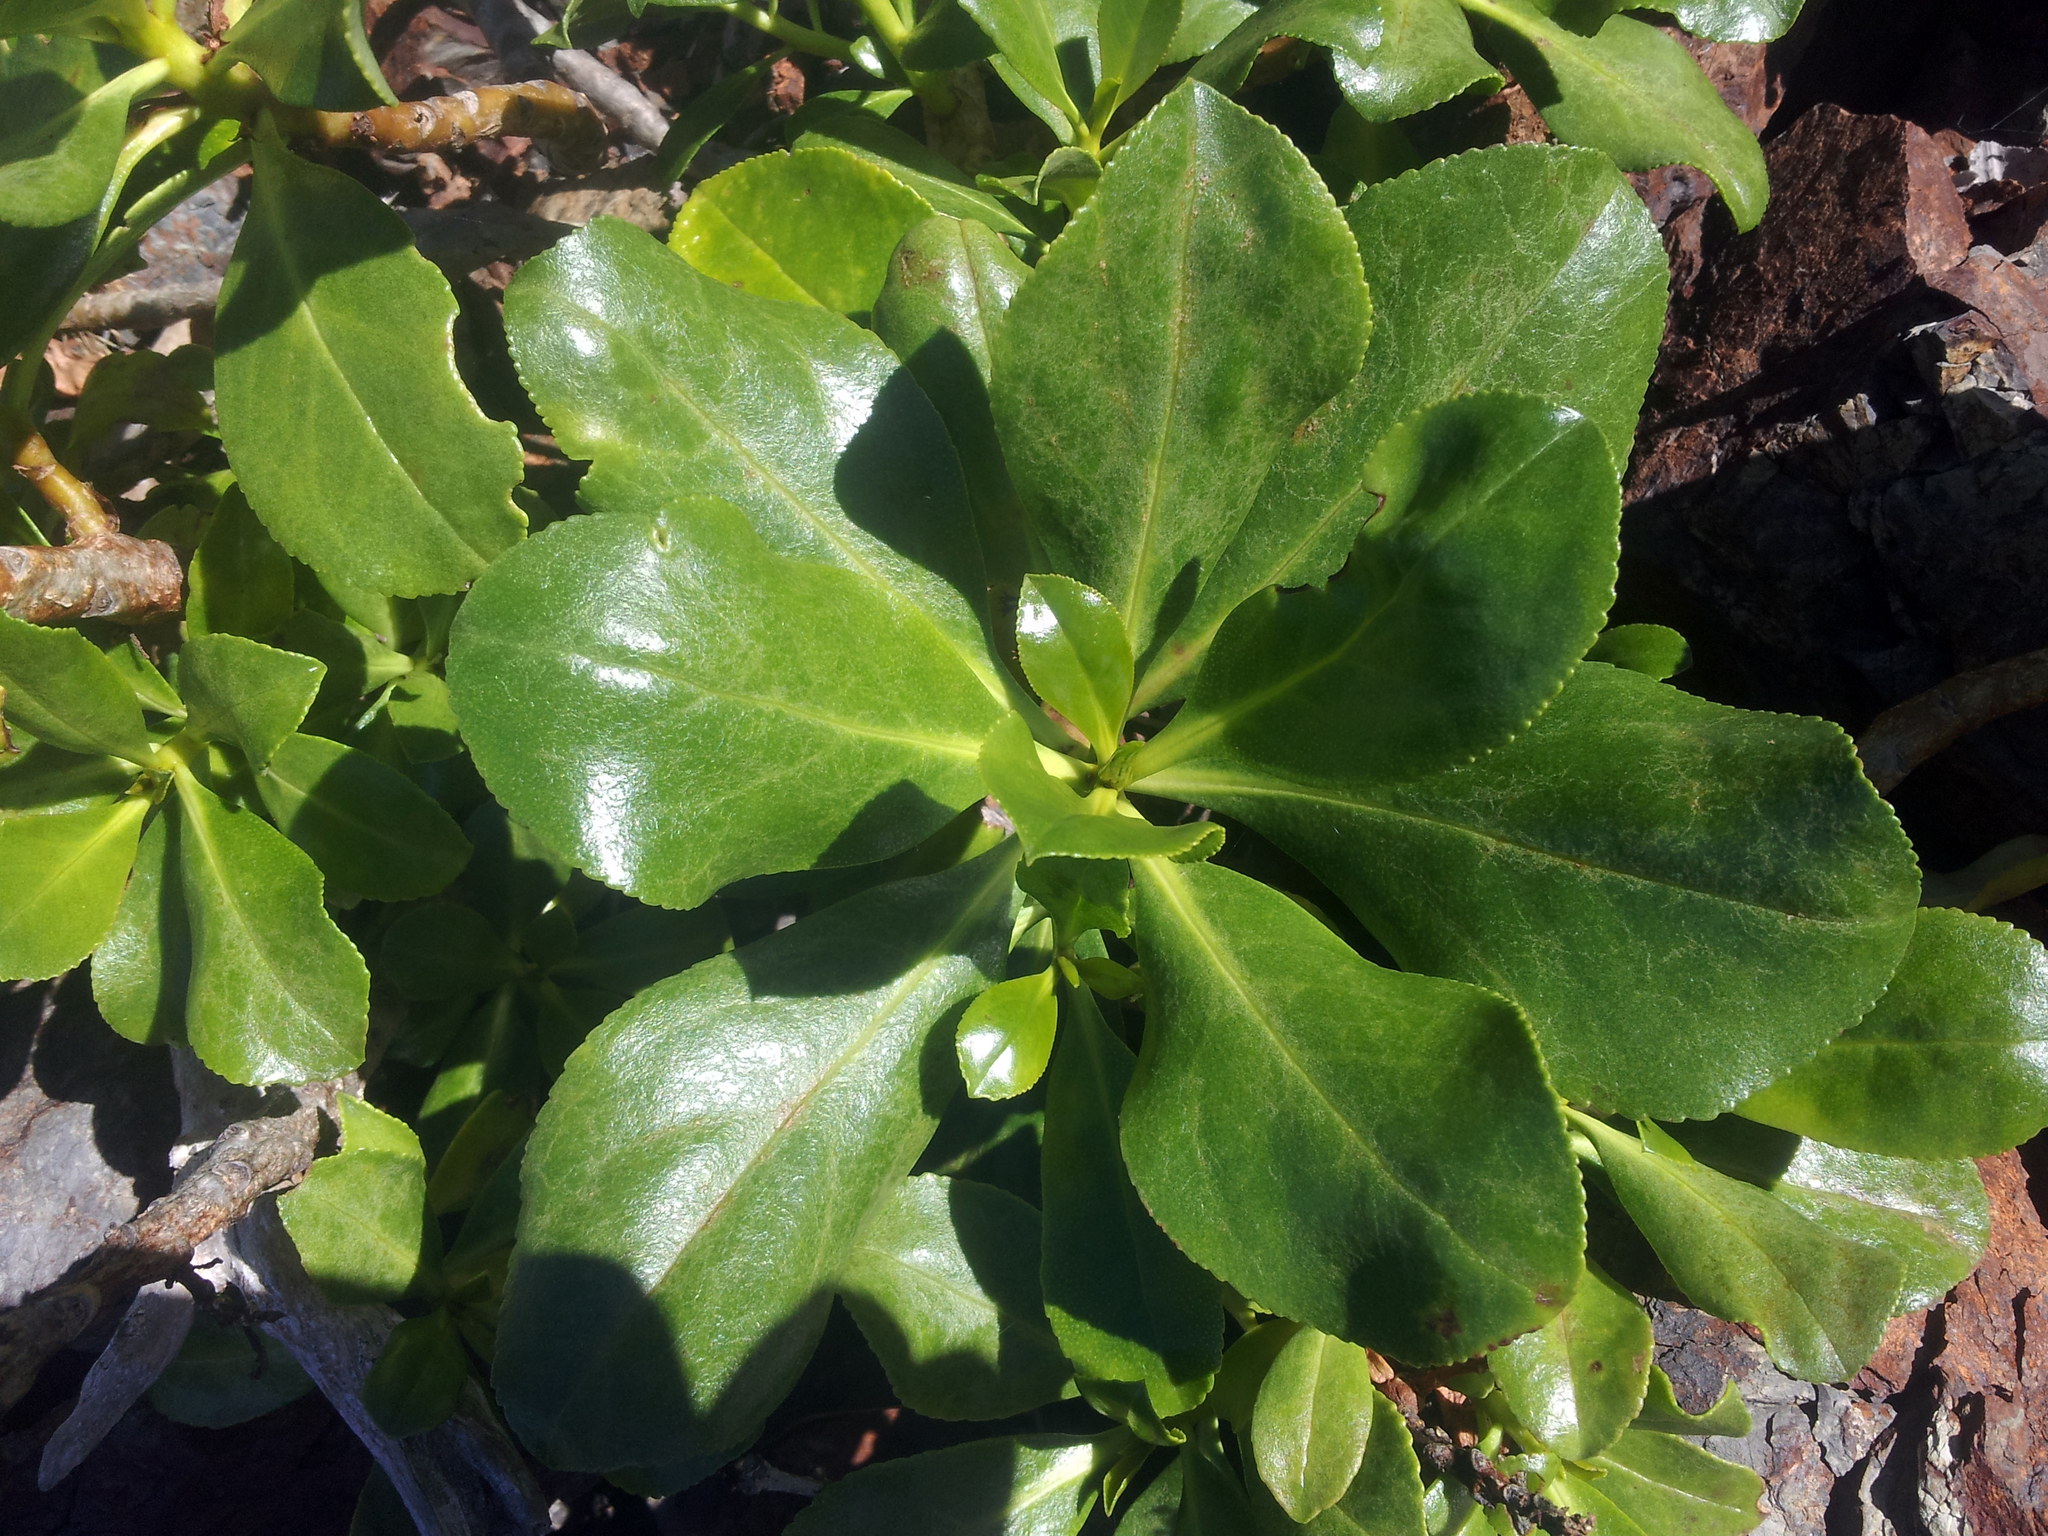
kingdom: Plantae
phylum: Tracheophyta
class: Magnoliopsida
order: Lamiales
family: Scrophulariaceae
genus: Myoporum
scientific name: Myoporum laetum
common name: Ngaio tree
